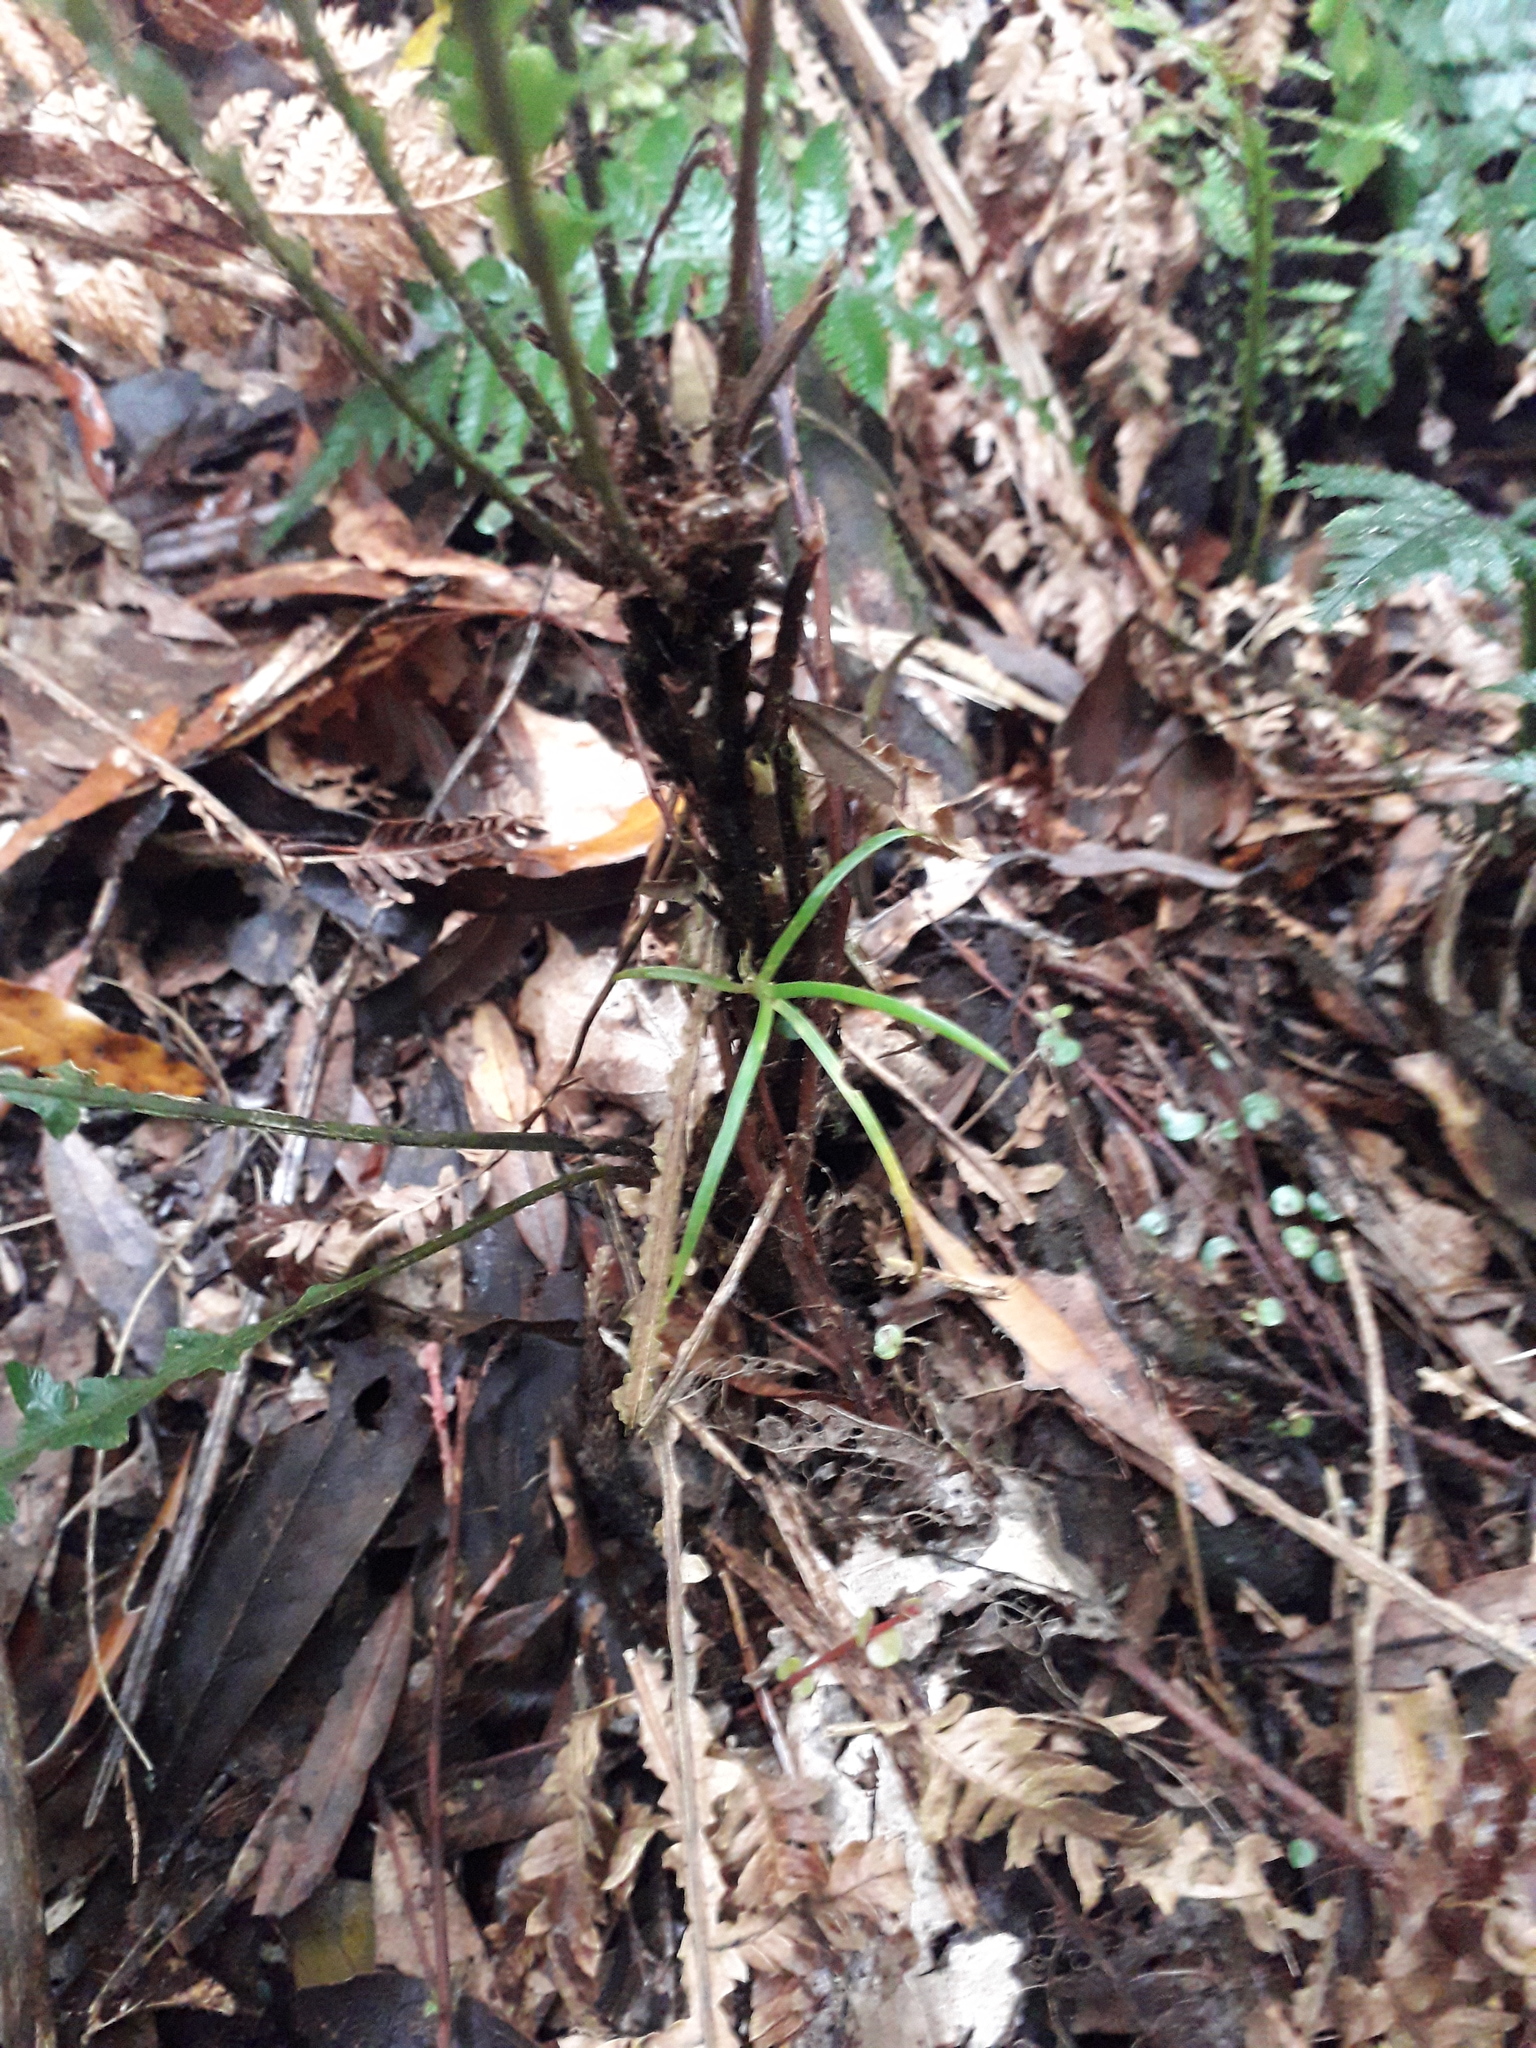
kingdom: Plantae
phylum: Tracheophyta
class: Polypodiopsida
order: Polypodiales
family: Blechnaceae
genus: Diploblechnum
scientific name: Diploblechnum fraseri
